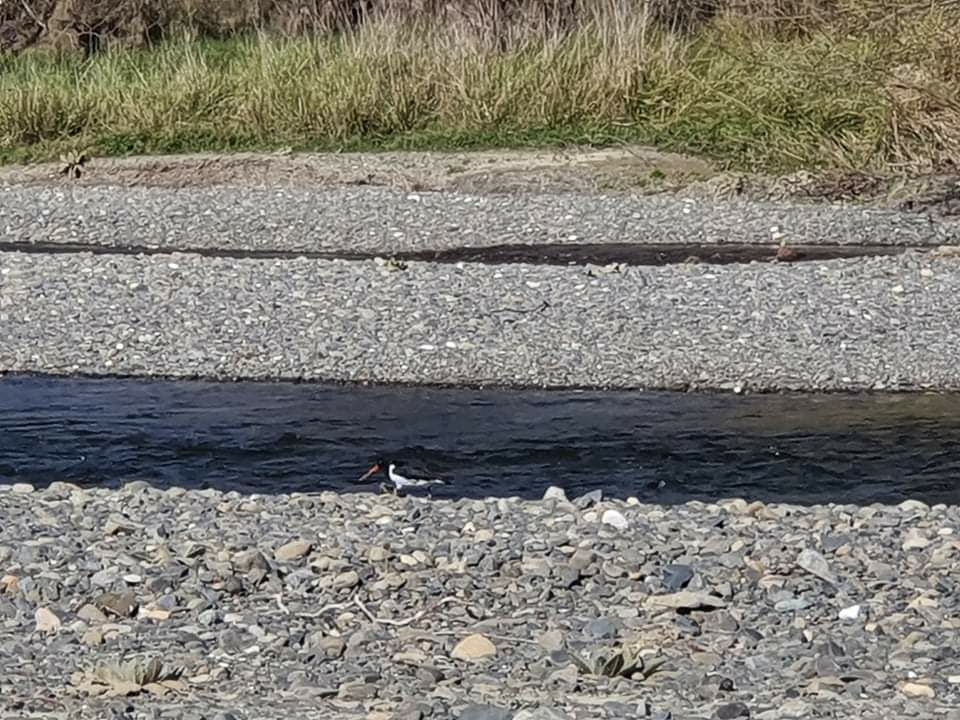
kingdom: Animalia
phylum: Chordata
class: Aves
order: Charadriiformes
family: Haematopodidae
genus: Haematopus
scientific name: Haematopus finschi
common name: South island oystercatcher
